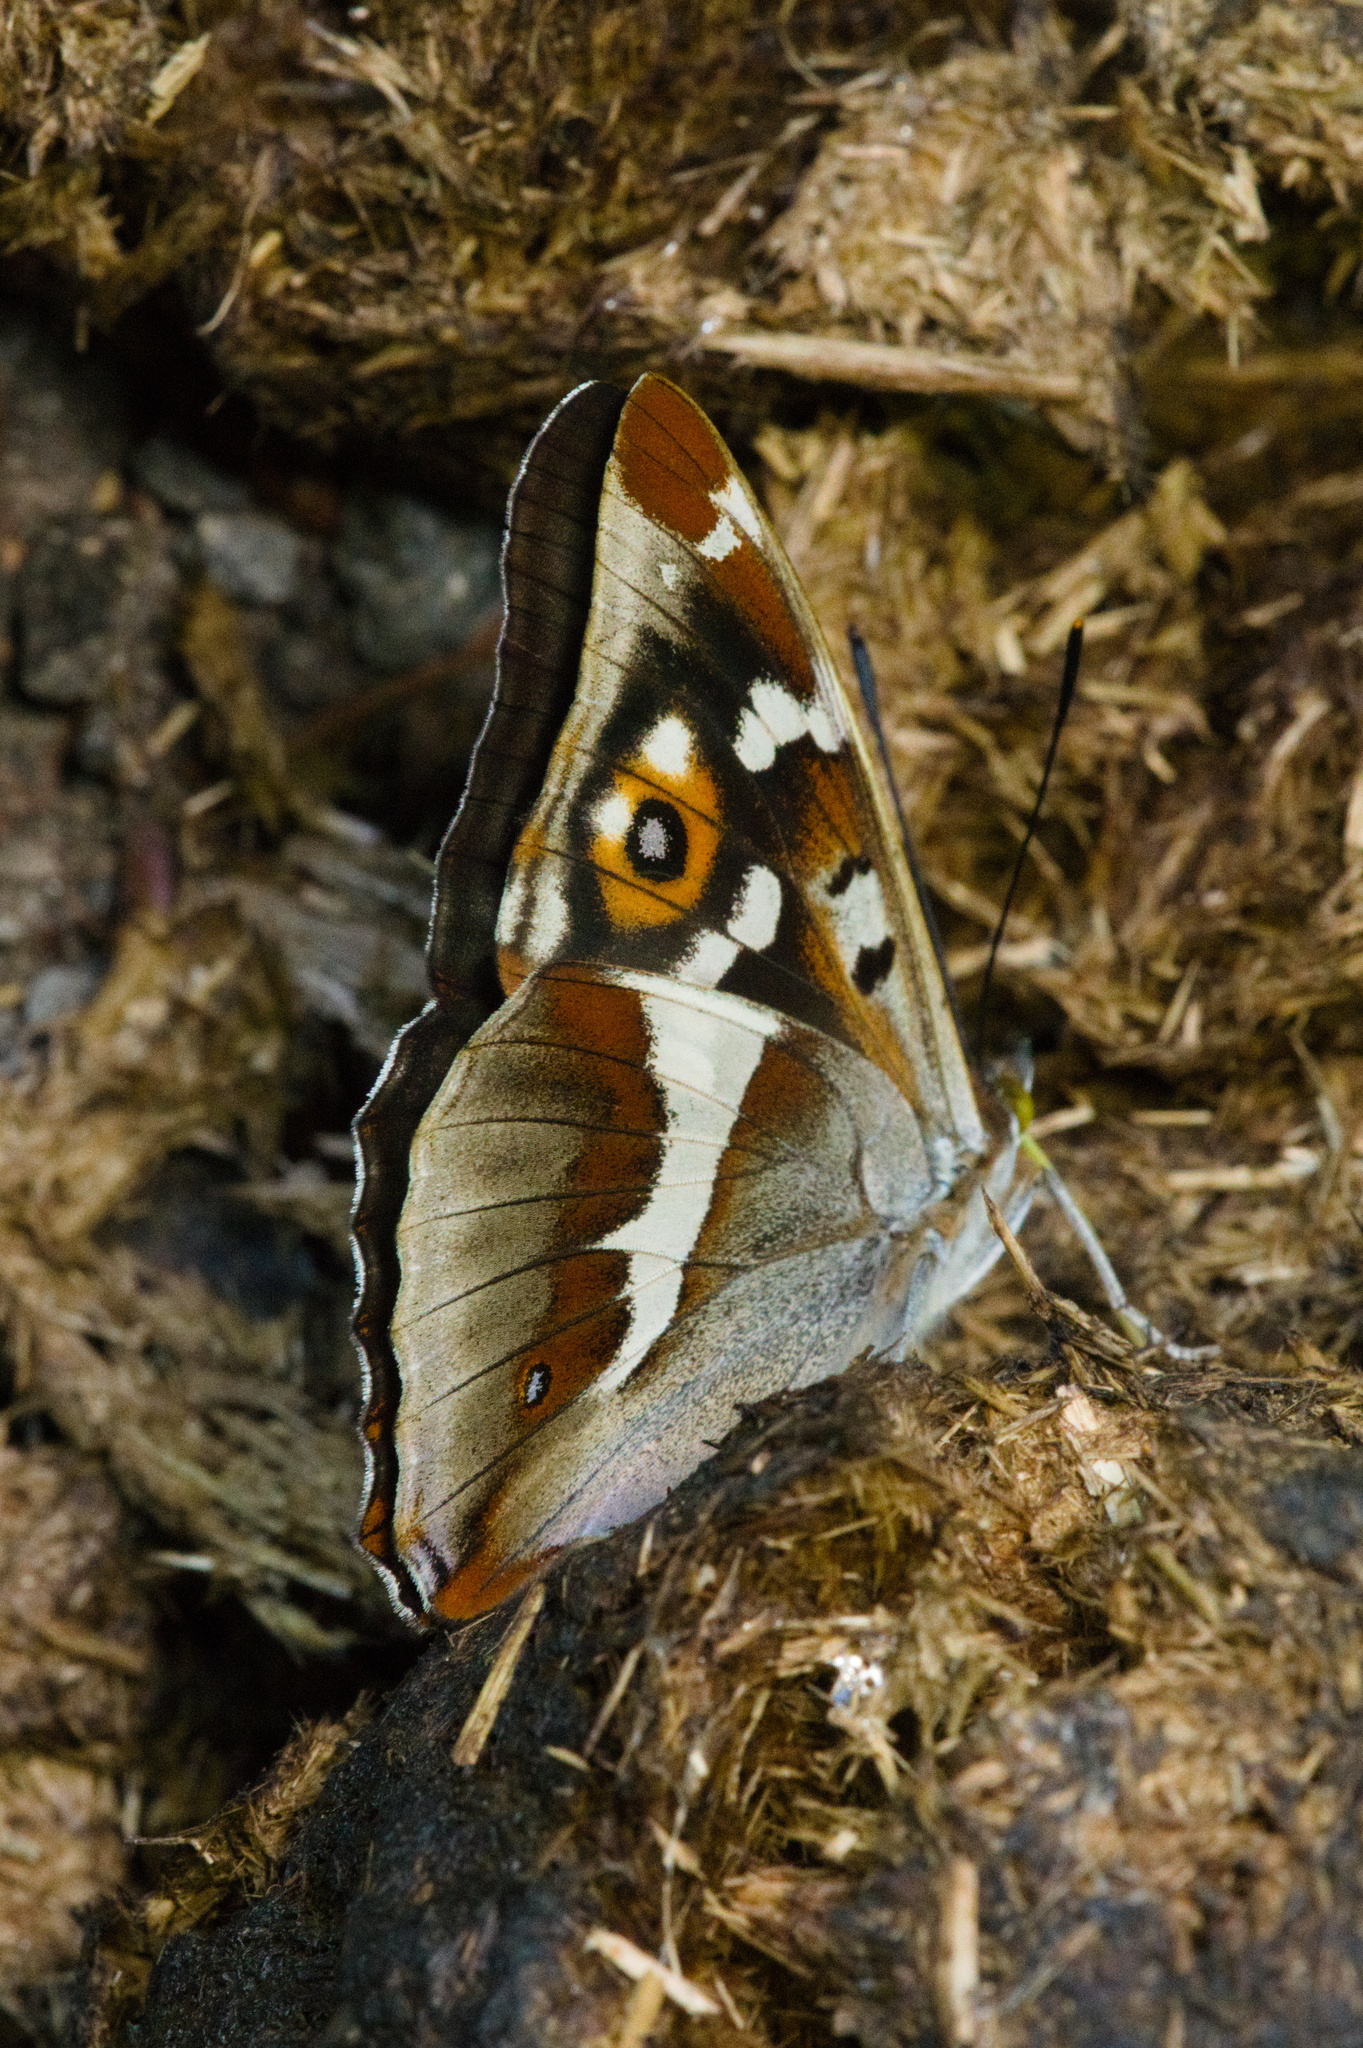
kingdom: Animalia
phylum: Arthropoda
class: Insecta
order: Lepidoptera
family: Nymphalidae
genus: Apatura
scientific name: Apatura iris
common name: Purple emperor
